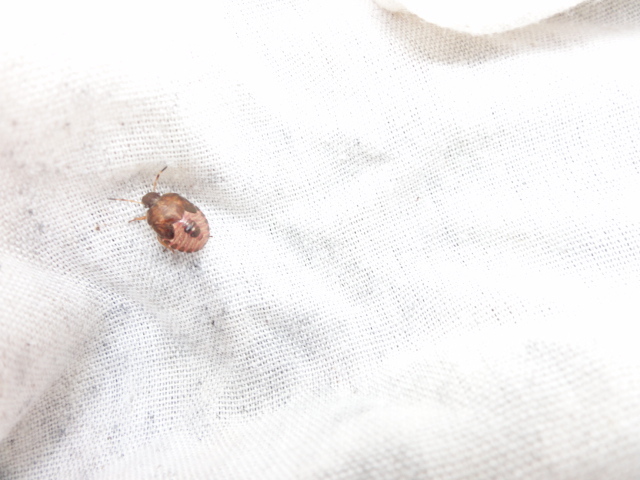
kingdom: Animalia
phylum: Arthropoda
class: Insecta
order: Hemiptera
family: Pentatomidae
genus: Holcostethus
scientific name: Holcostethus strictus
